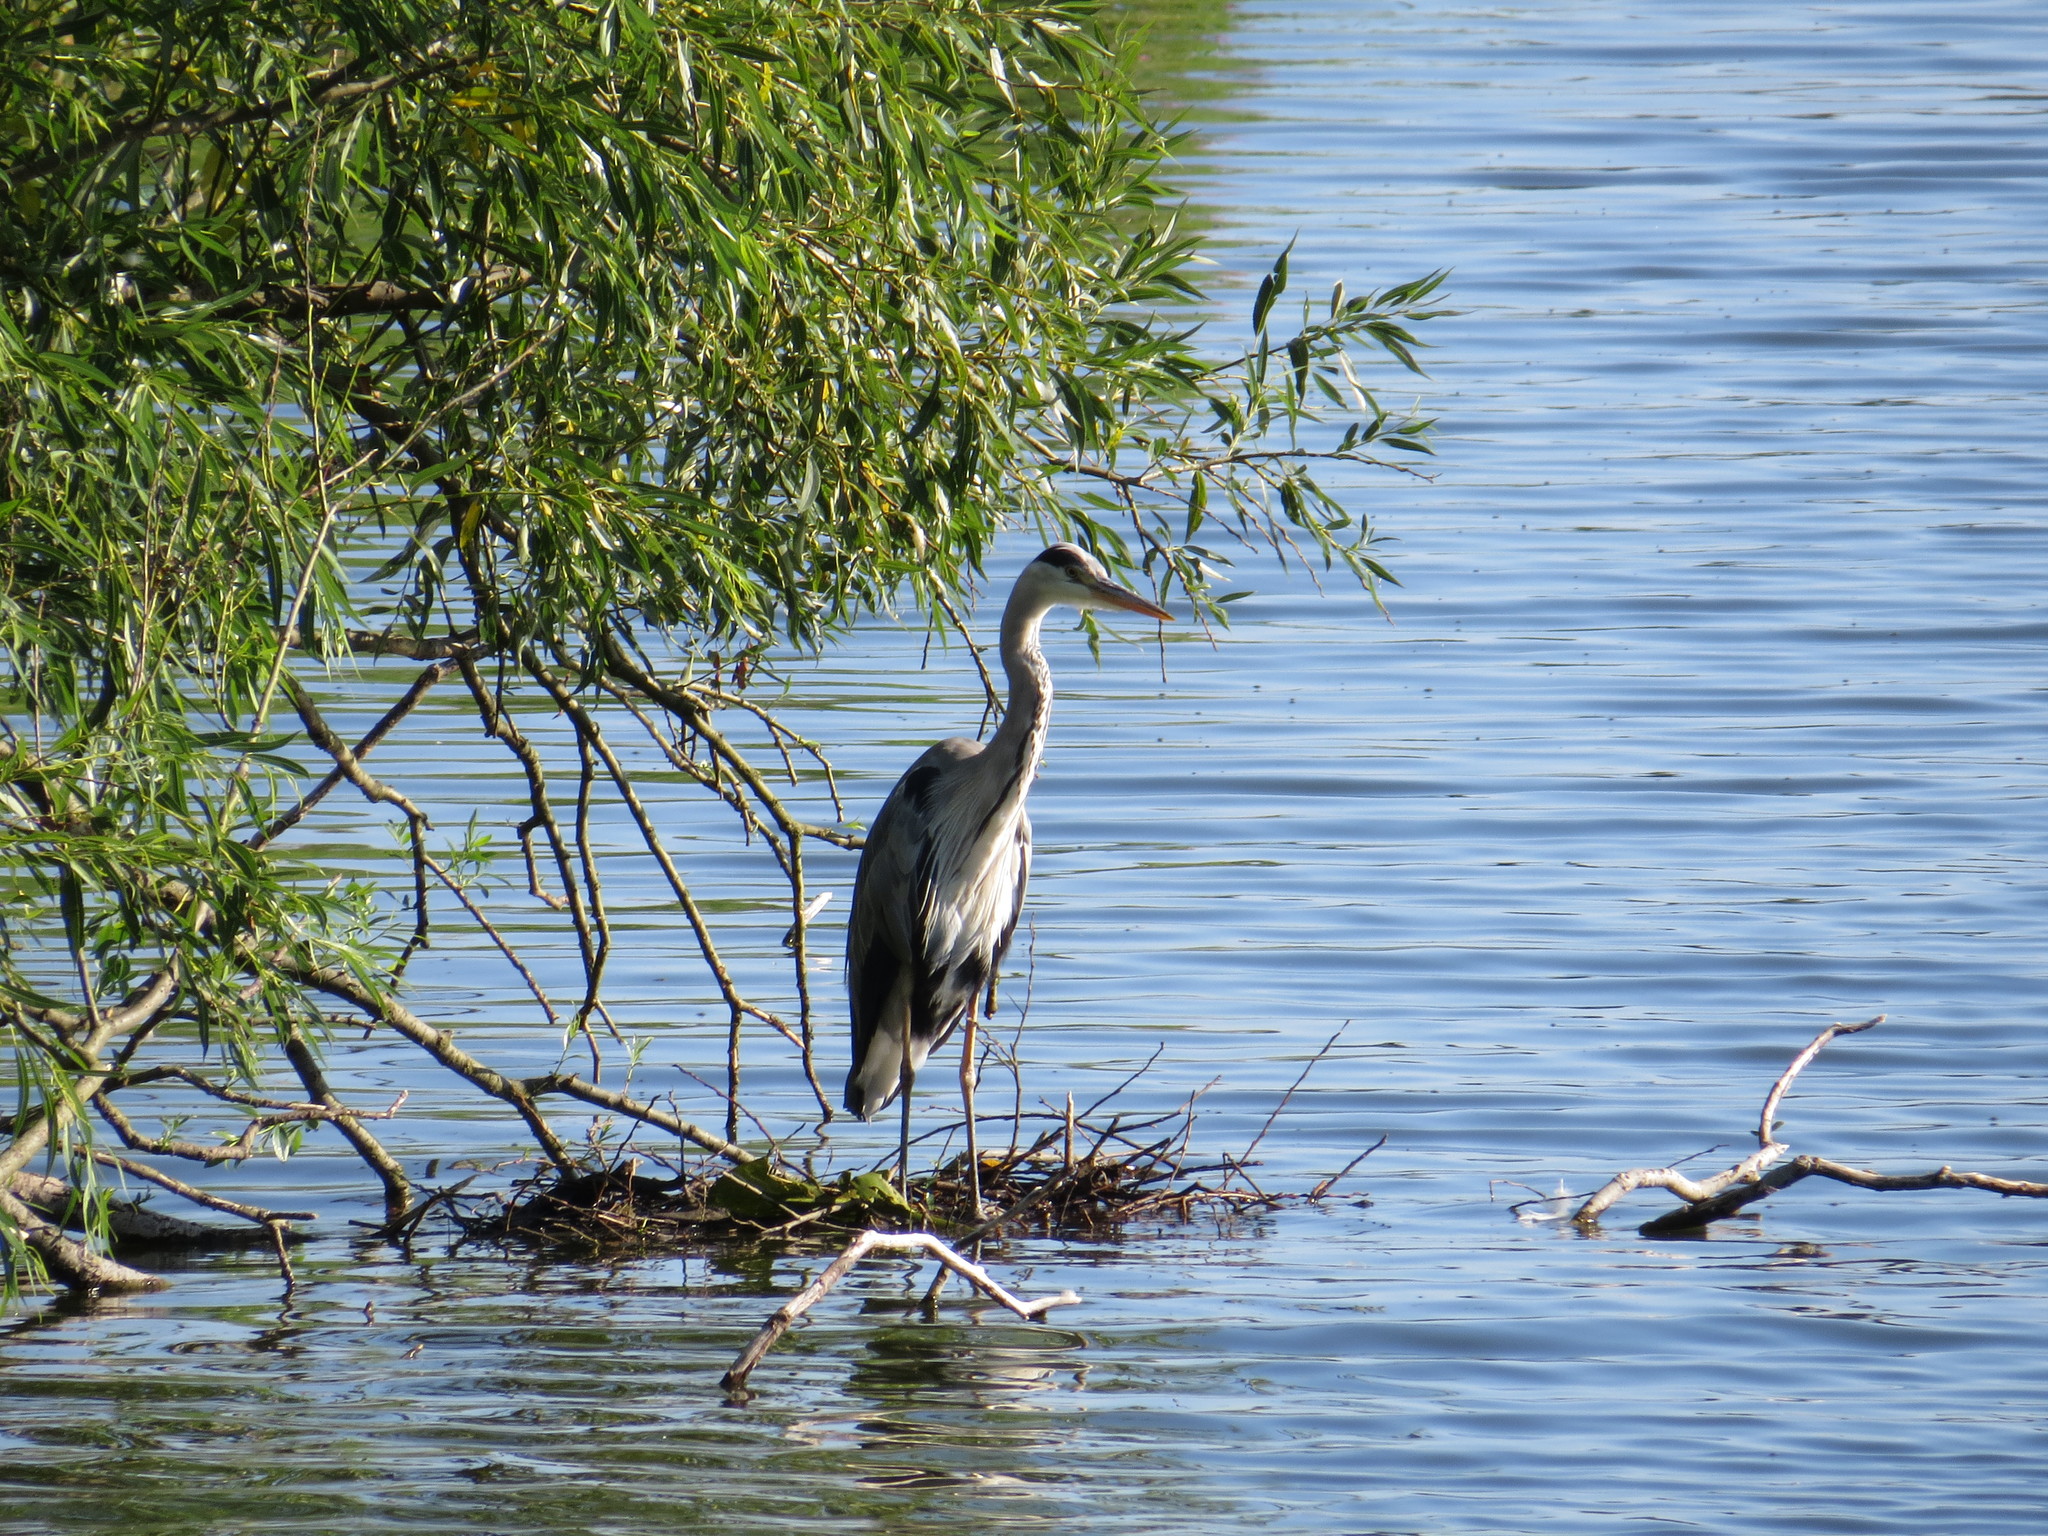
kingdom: Animalia
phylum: Chordata
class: Aves
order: Pelecaniformes
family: Ardeidae
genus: Ardea
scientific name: Ardea cinerea
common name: Grey heron
